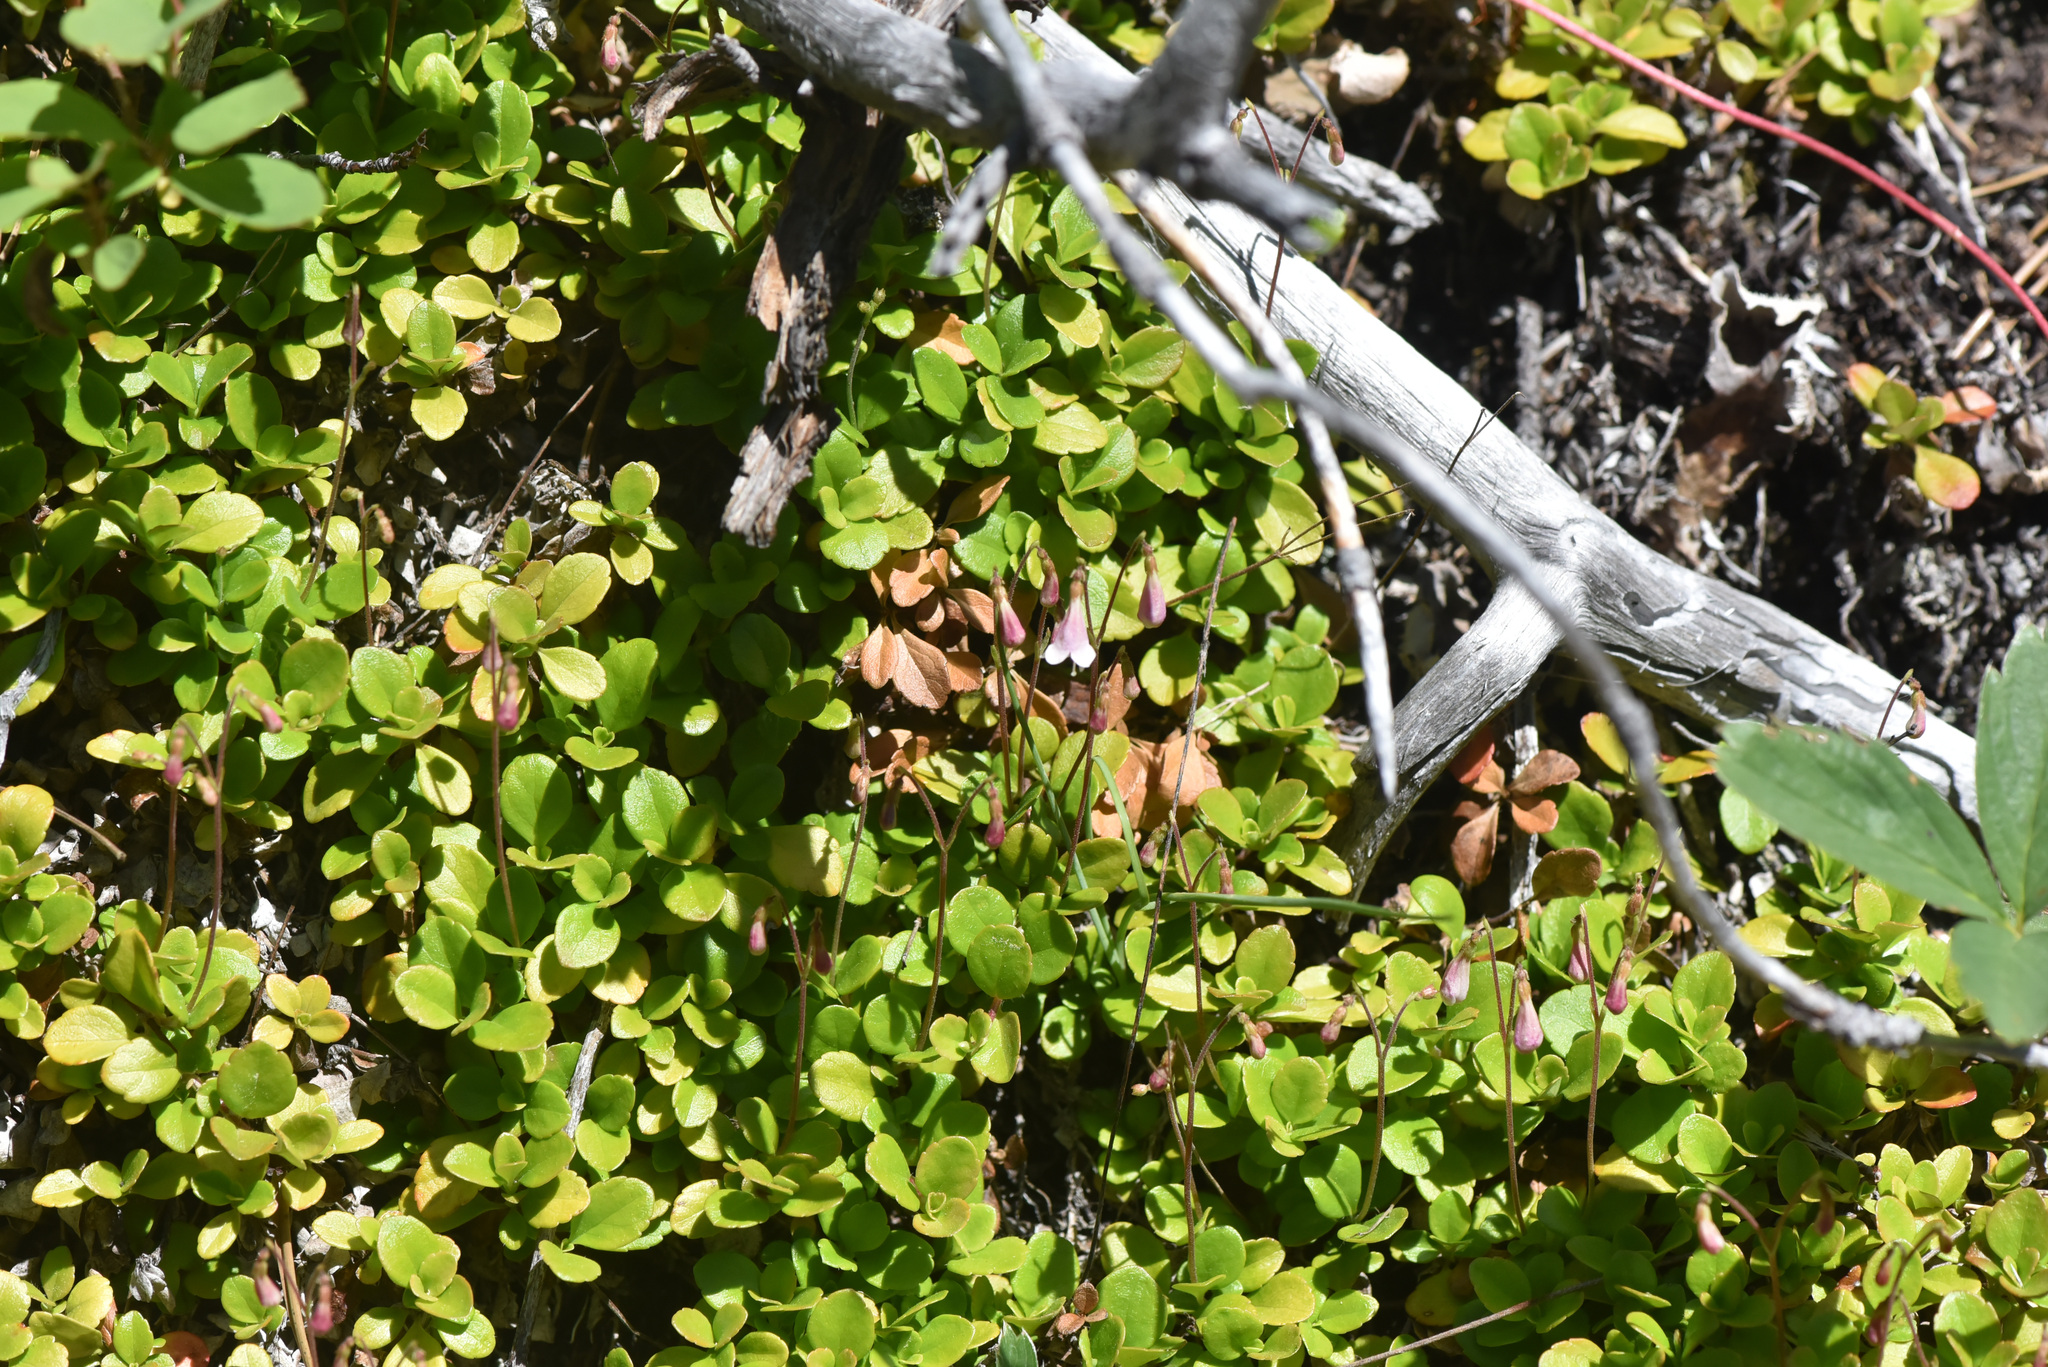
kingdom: Plantae
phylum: Tracheophyta
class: Magnoliopsida
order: Dipsacales
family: Caprifoliaceae
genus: Linnaea
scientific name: Linnaea borealis
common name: Twinflower
